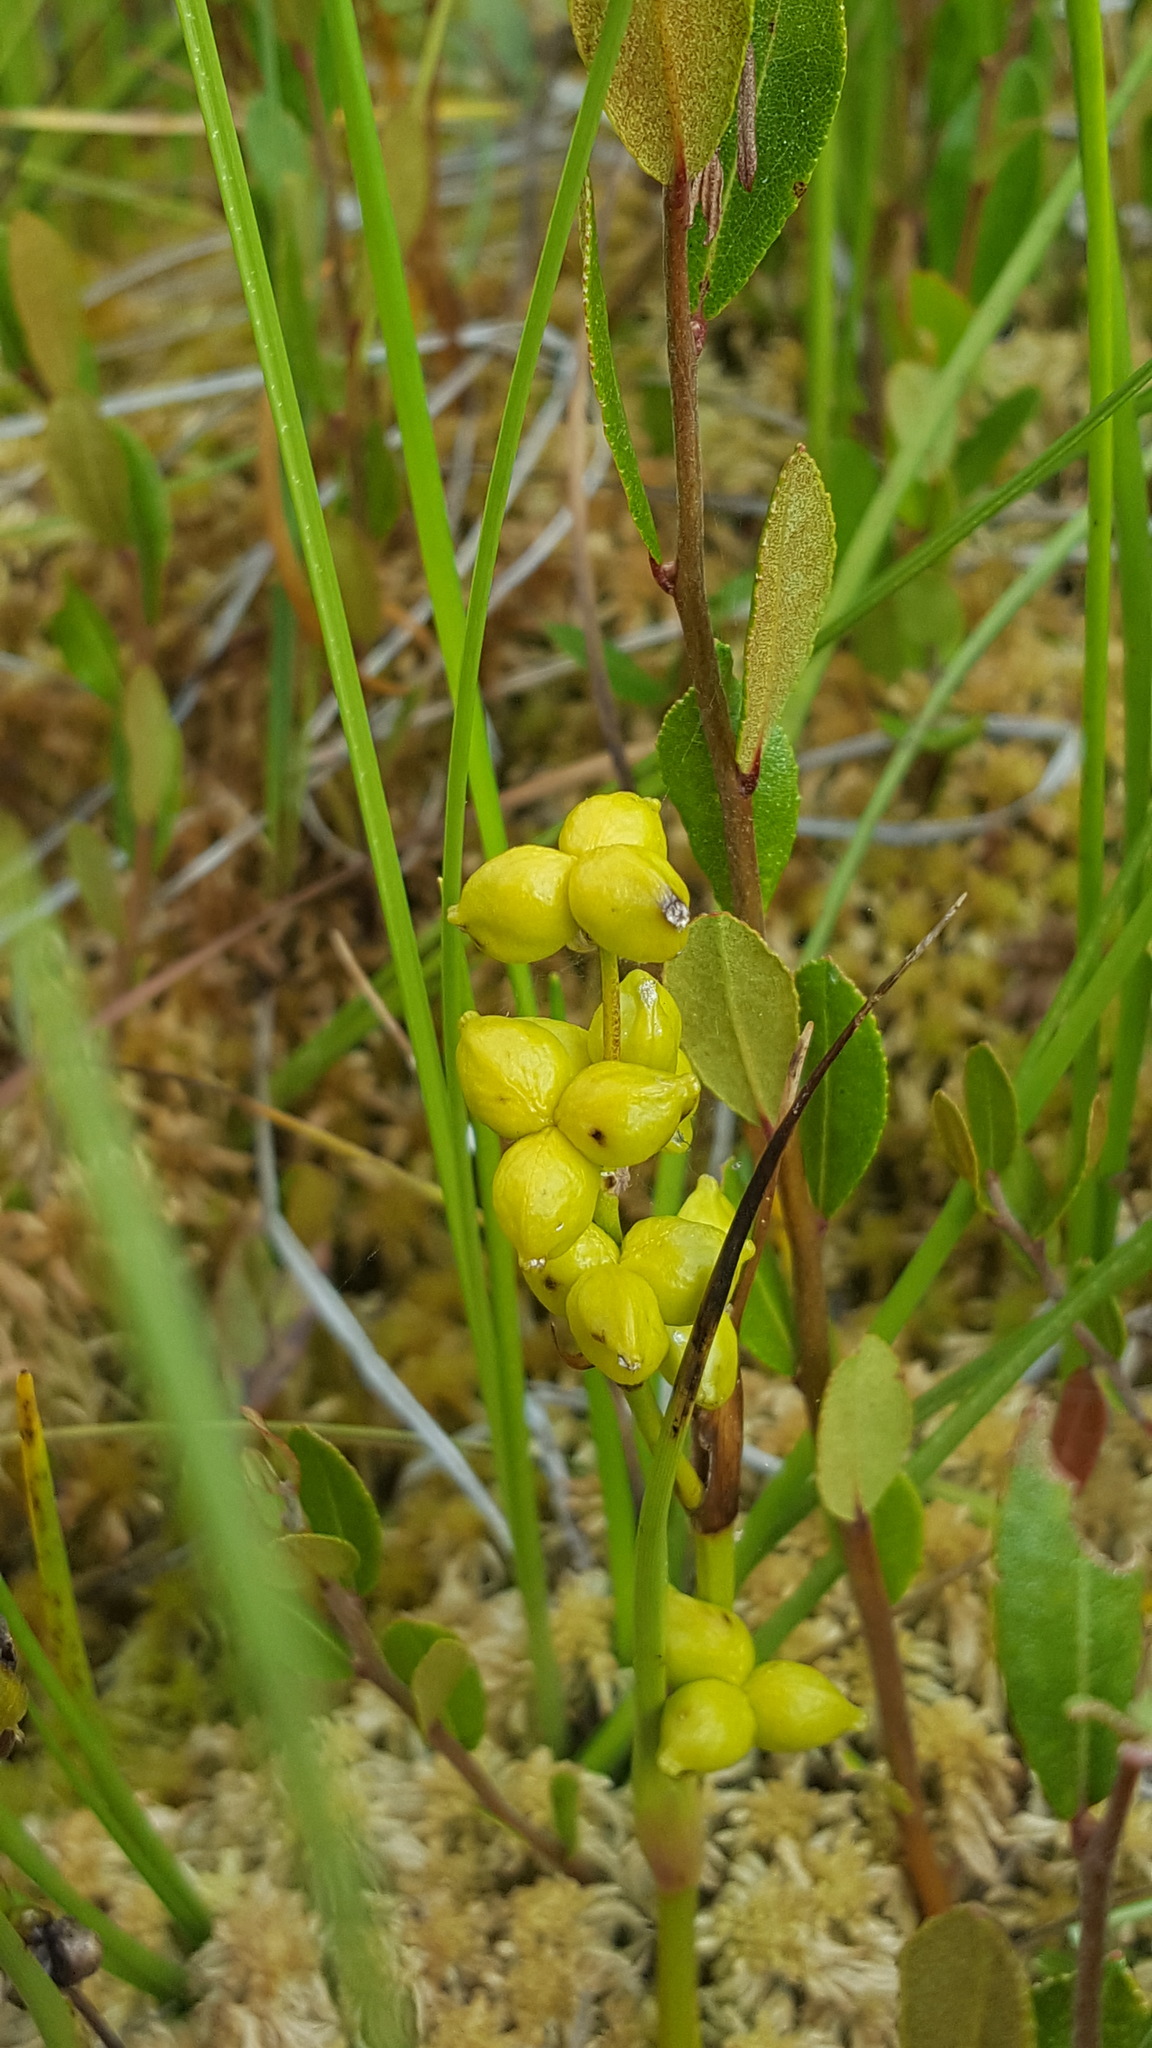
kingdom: Plantae
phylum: Tracheophyta
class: Liliopsida
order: Alismatales
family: Scheuchzeriaceae
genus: Scheuchzeria
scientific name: Scheuchzeria palustris
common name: Rannoch-rush
